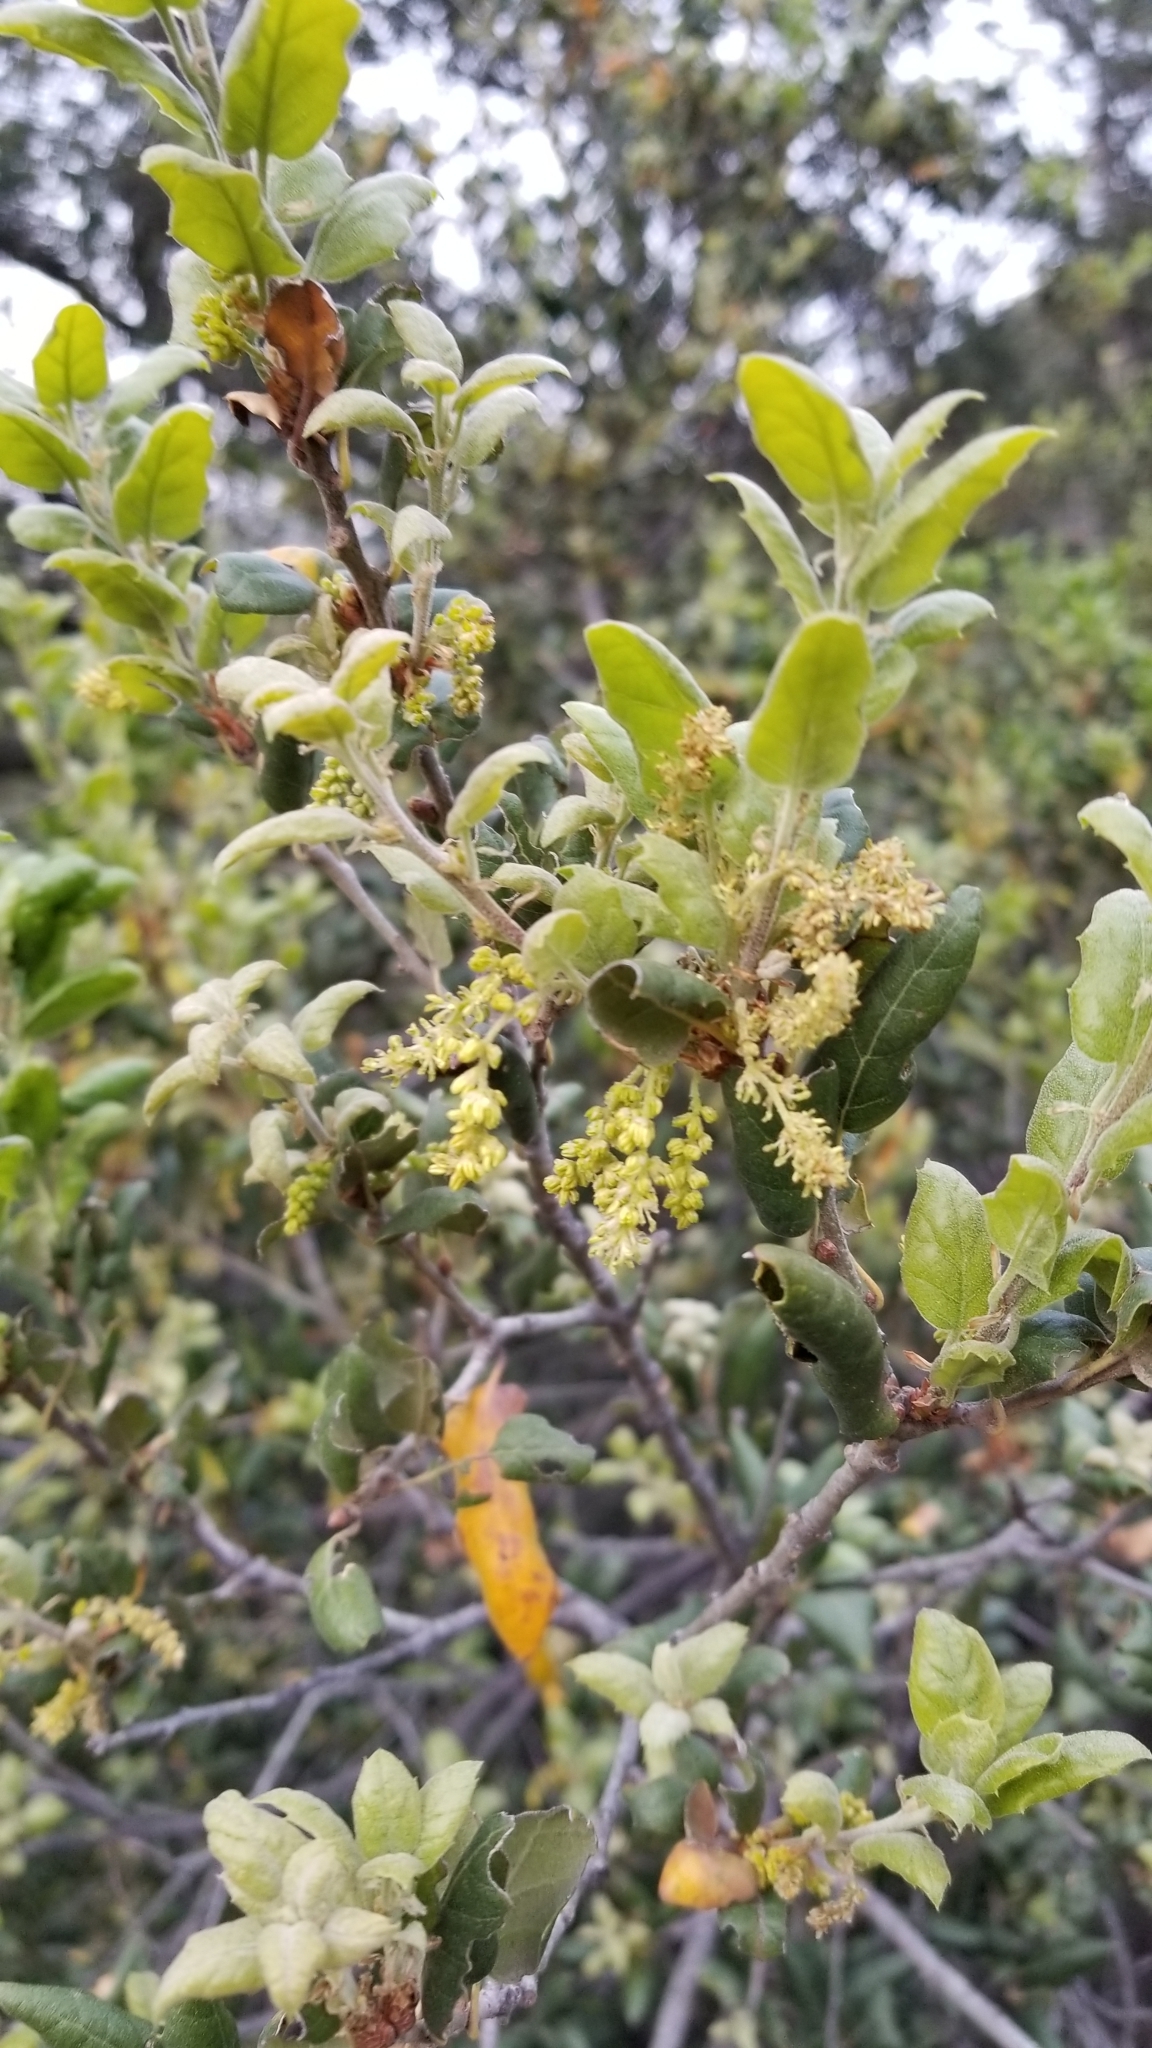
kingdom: Plantae
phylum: Tracheophyta
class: Magnoliopsida
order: Fagales
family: Fagaceae
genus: Quercus
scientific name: Quercus agrifolia
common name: California live oak
